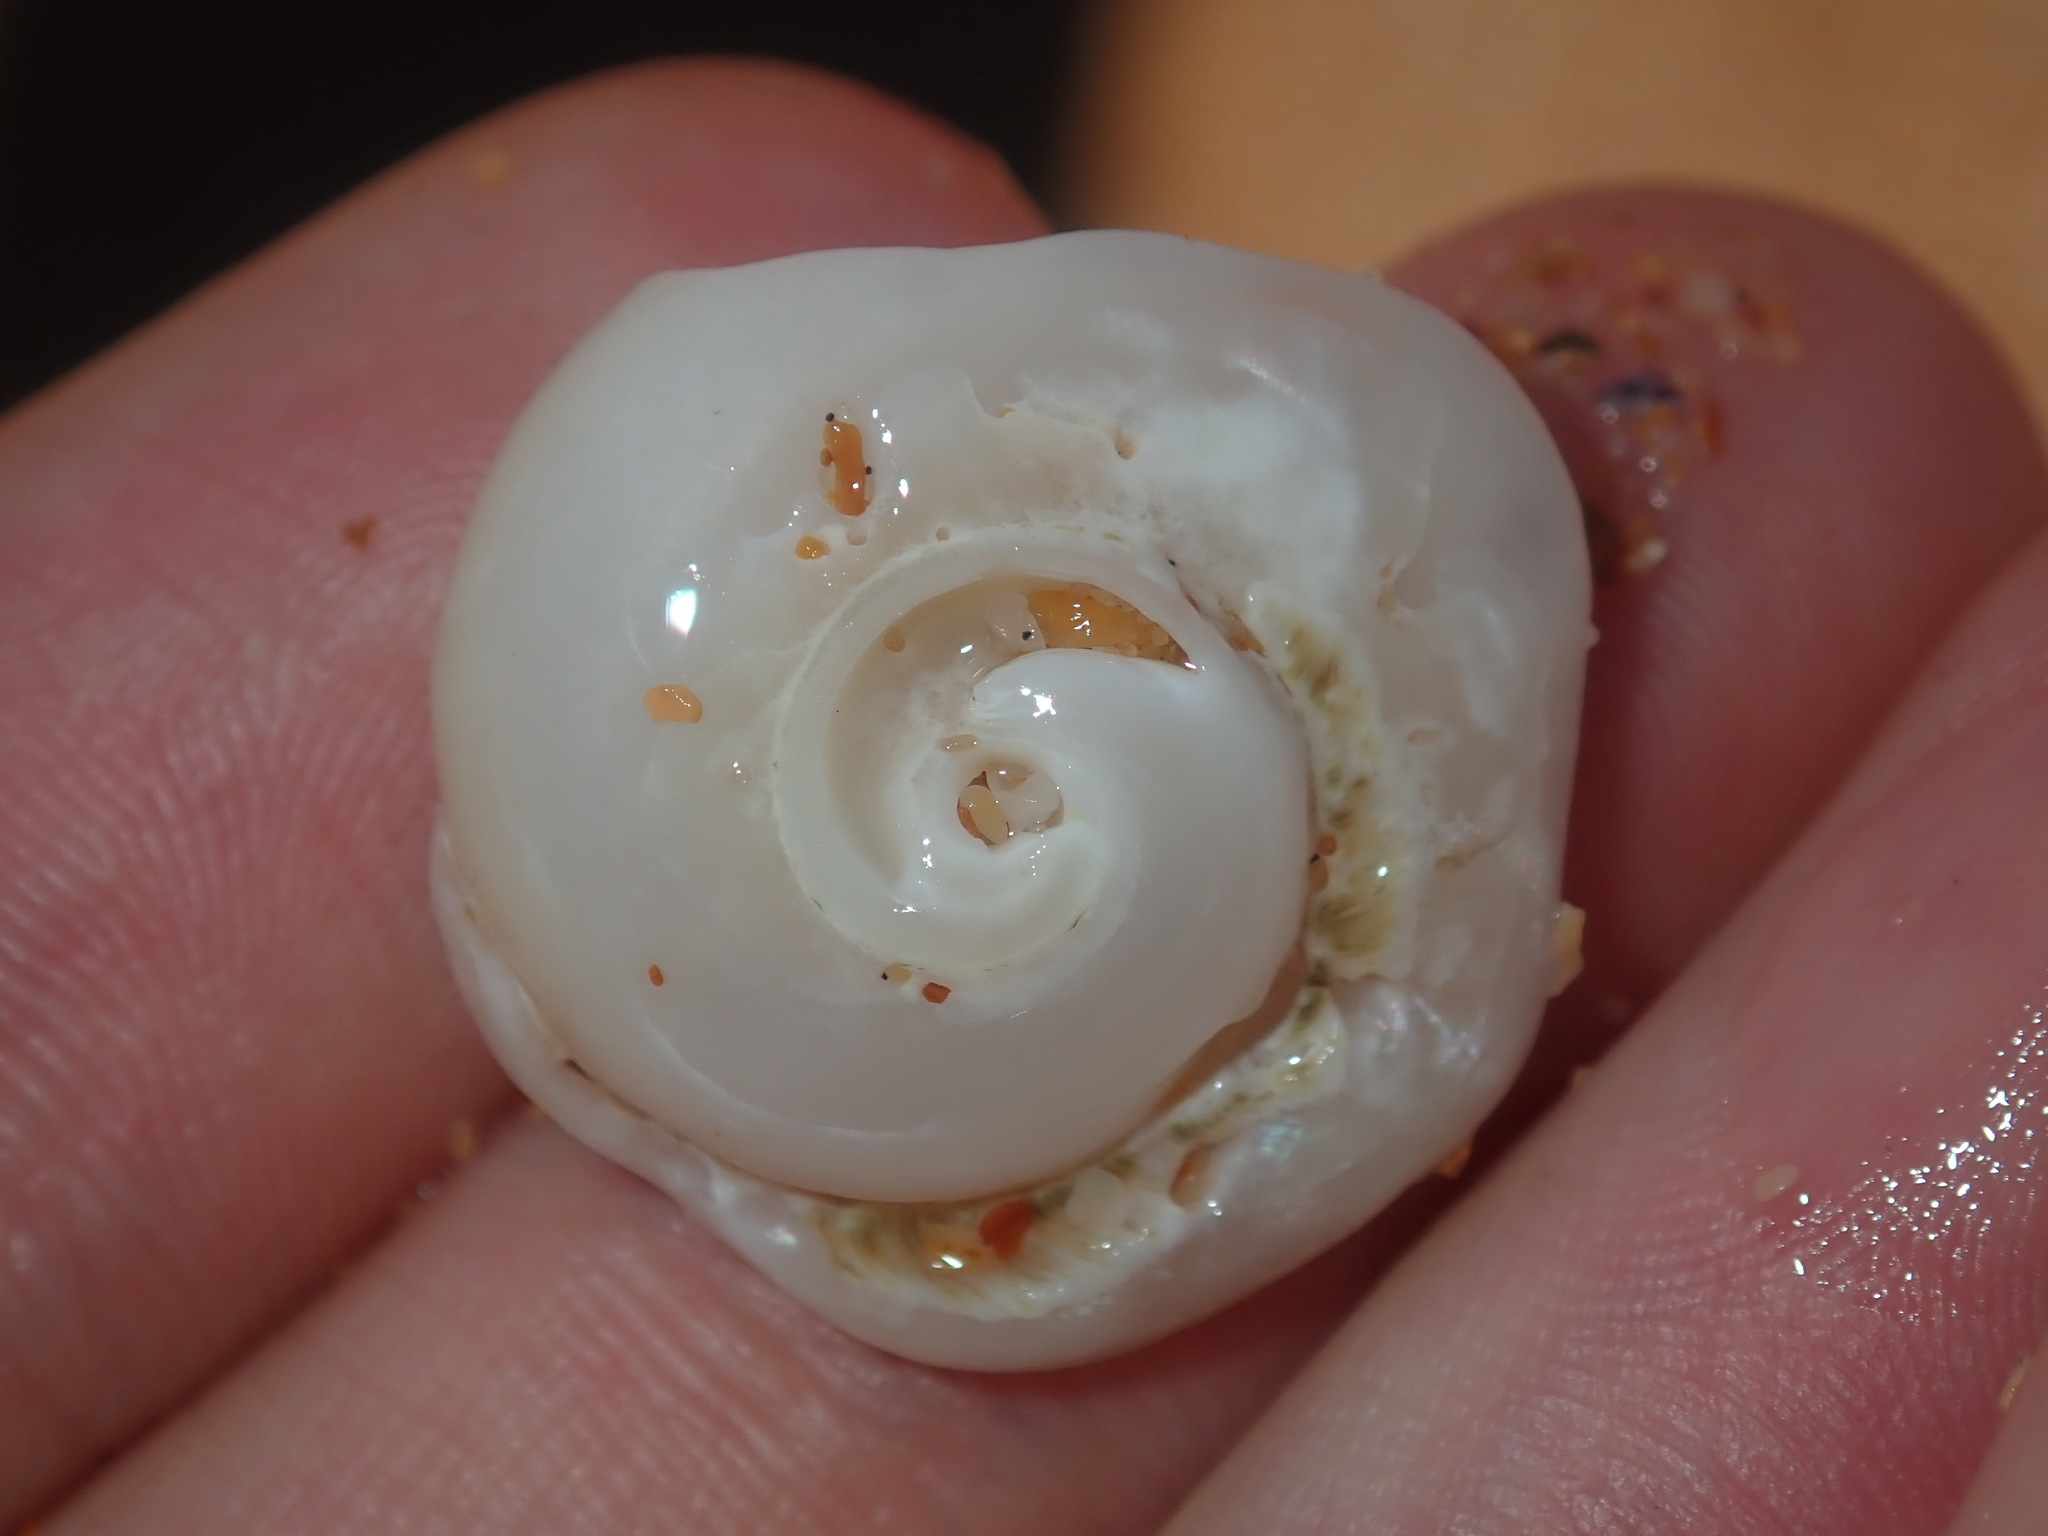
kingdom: Animalia
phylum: Mollusca
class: Gastropoda
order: Trochida
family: Turbinidae
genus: Lunella
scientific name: Lunella torquata
